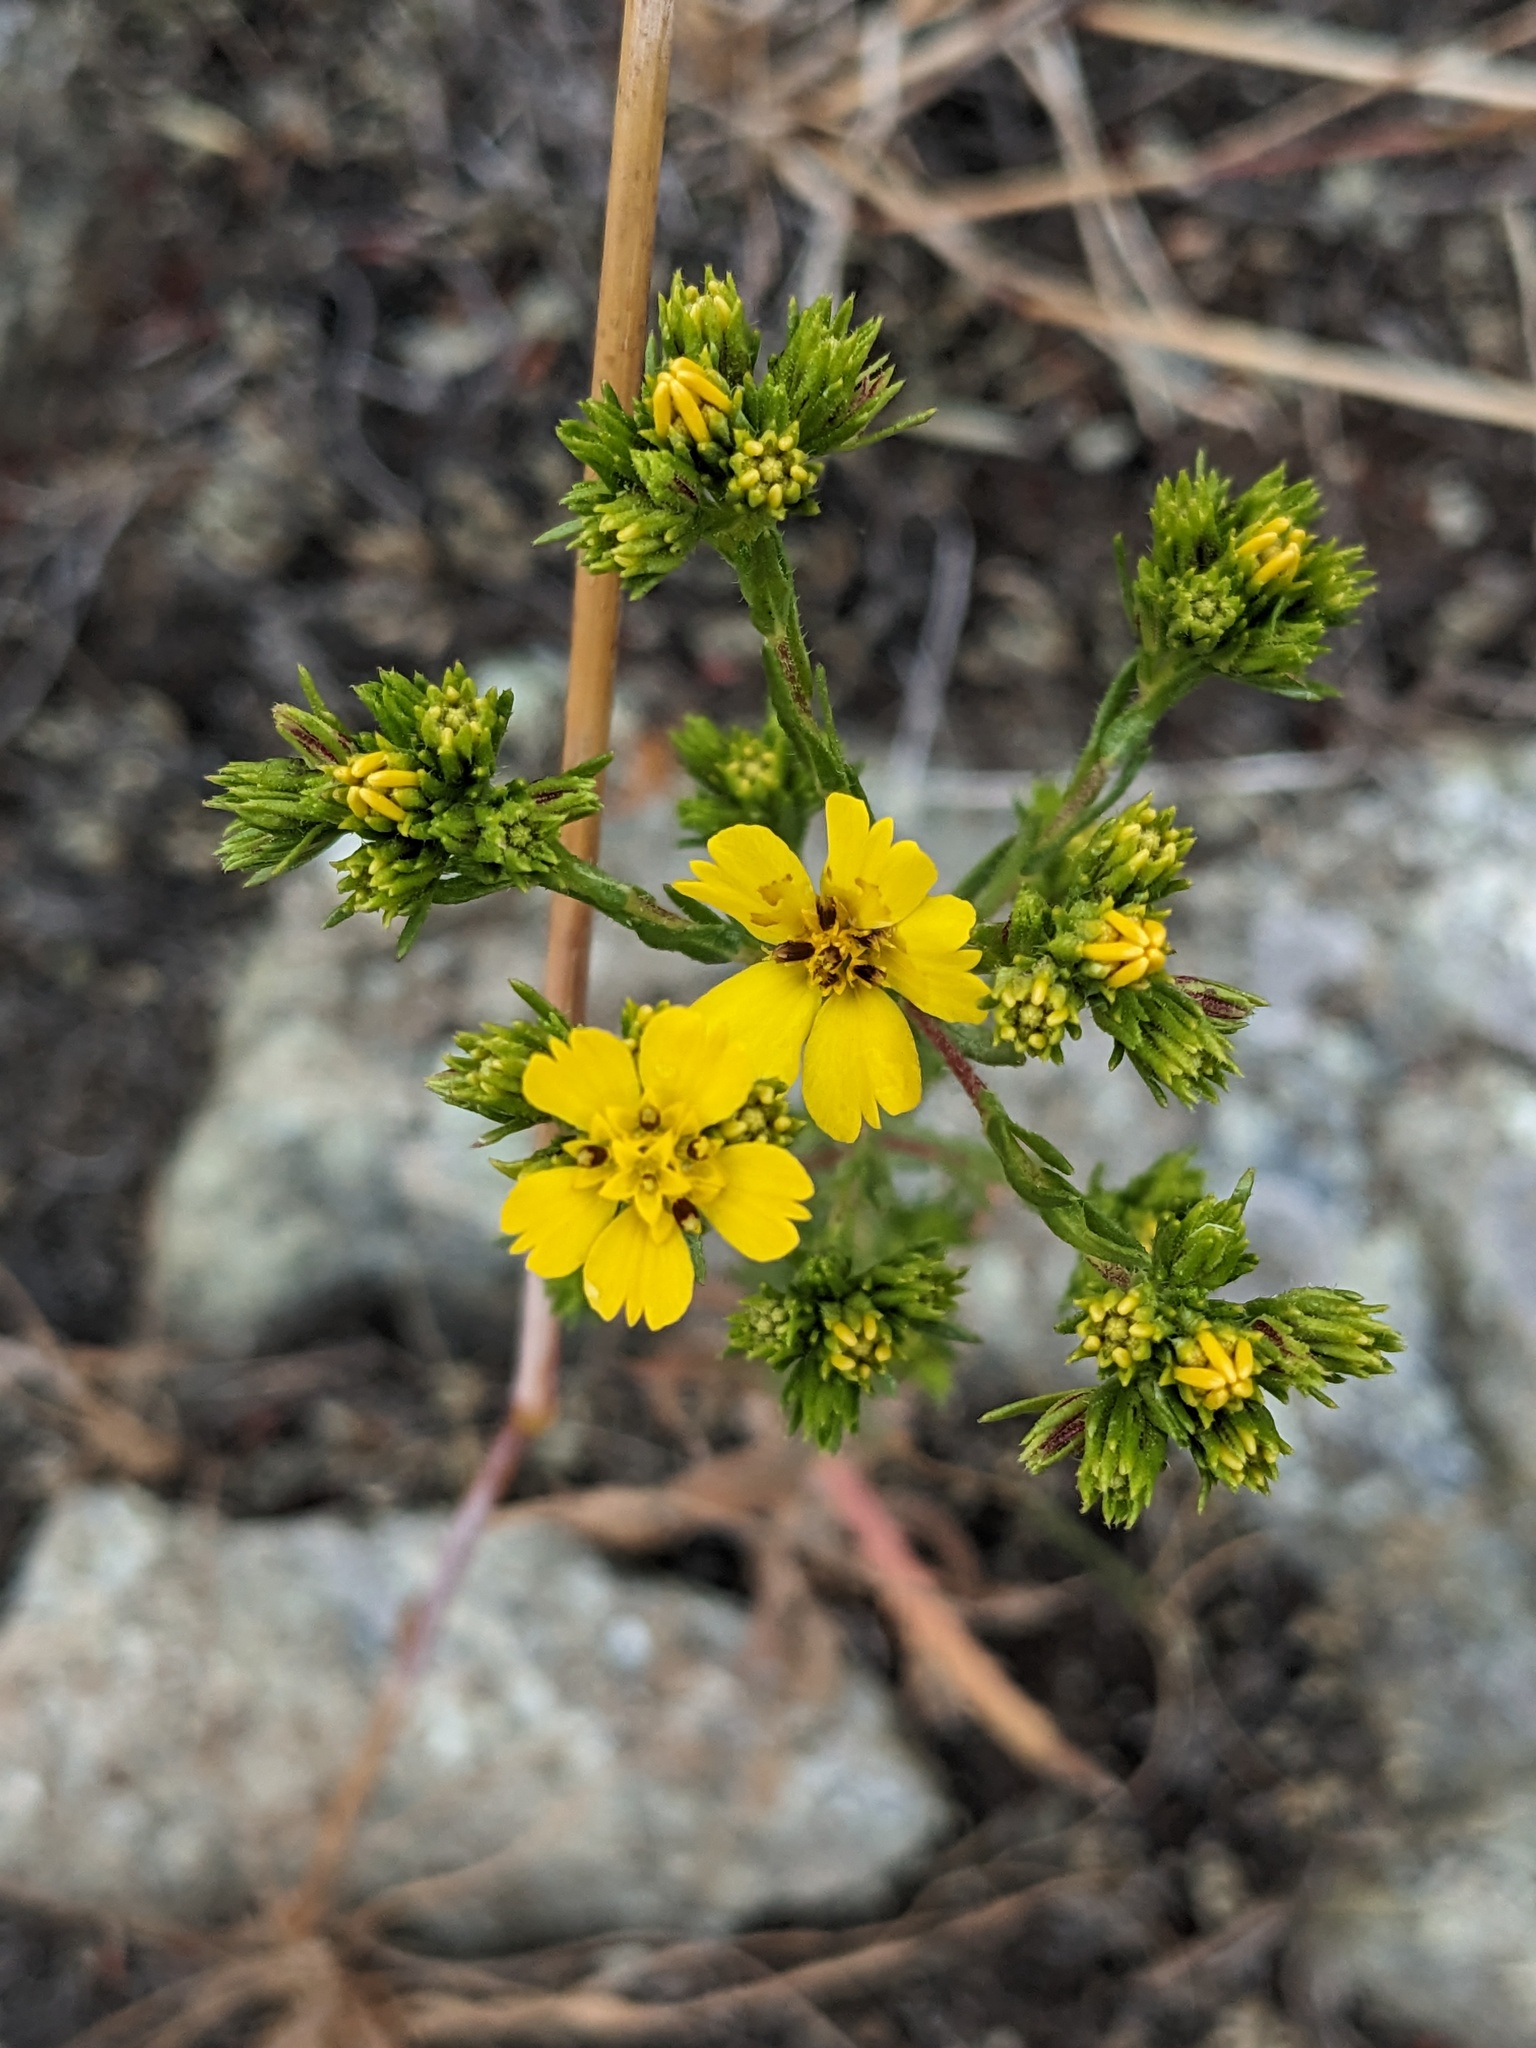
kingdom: Plantae
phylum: Tracheophyta
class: Magnoliopsida
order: Asterales
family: Asteraceae
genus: Deinandra
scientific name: Deinandra fasciculata
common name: Clustered tarweed
